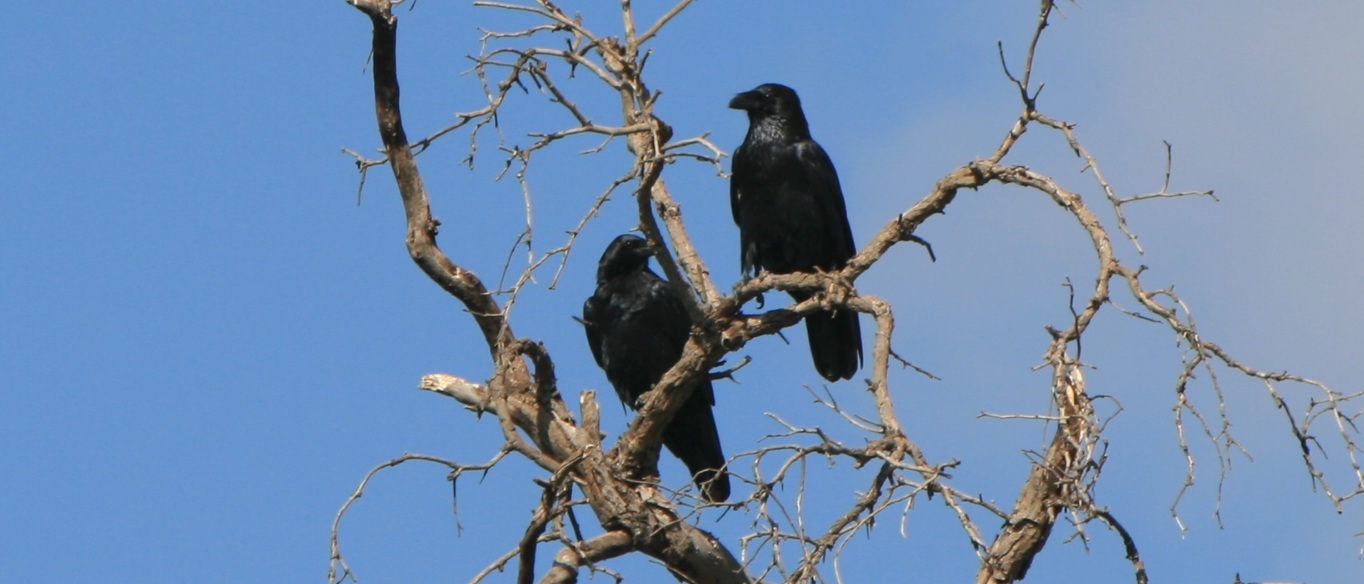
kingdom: Animalia
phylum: Chordata
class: Aves
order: Passeriformes
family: Corvidae
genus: Corvus
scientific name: Corvus cryptoleucus
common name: Chihuahuan raven
